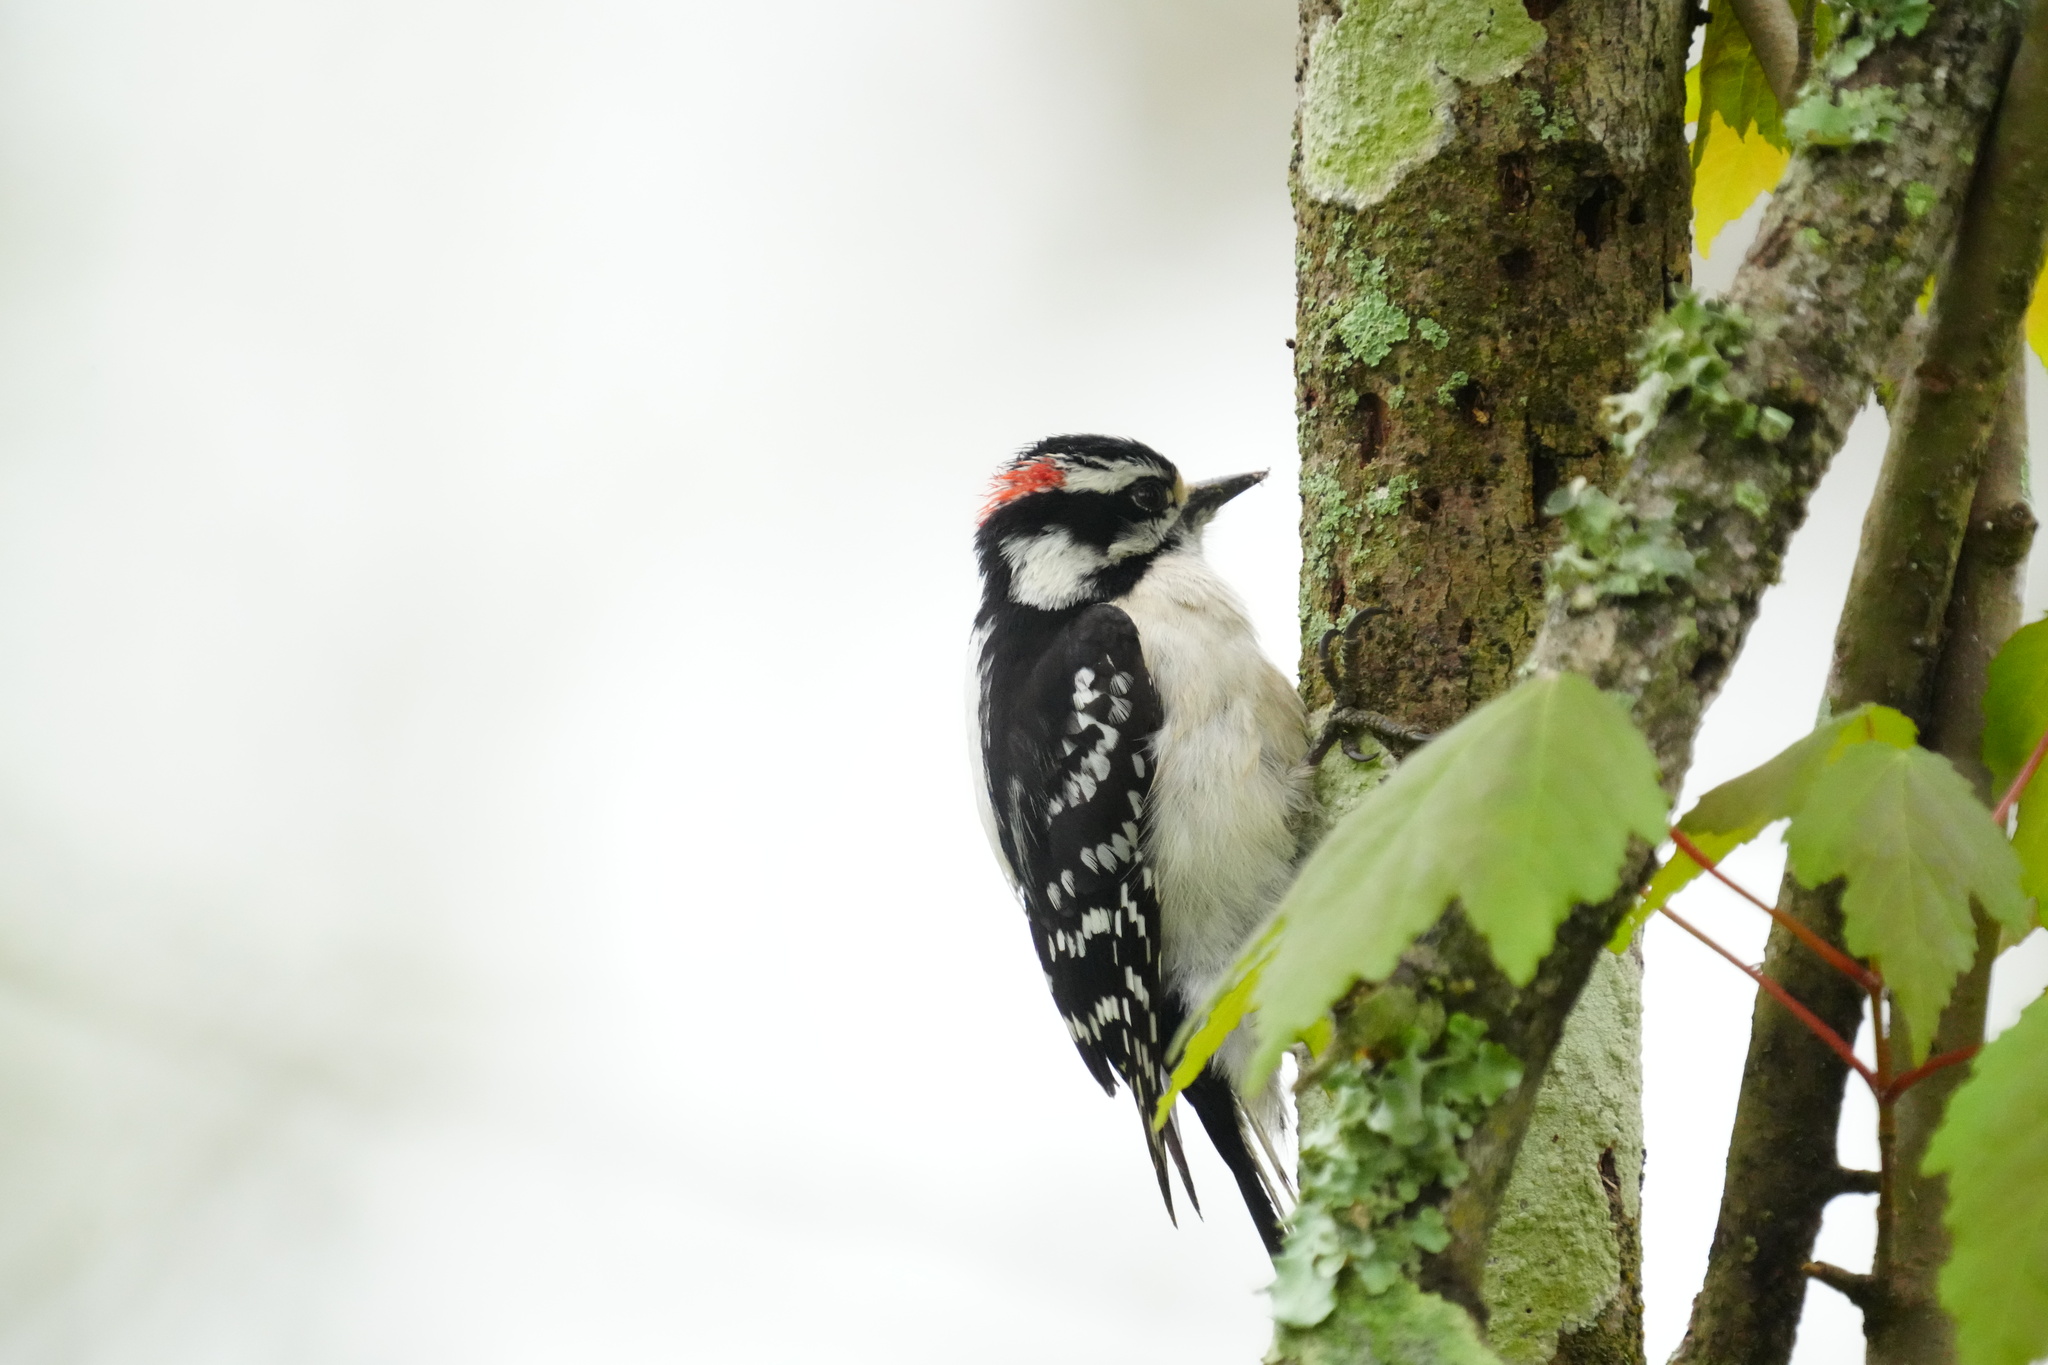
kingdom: Animalia
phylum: Chordata
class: Aves
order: Piciformes
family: Picidae
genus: Dryobates
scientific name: Dryobates pubescens
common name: Downy woodpecker
